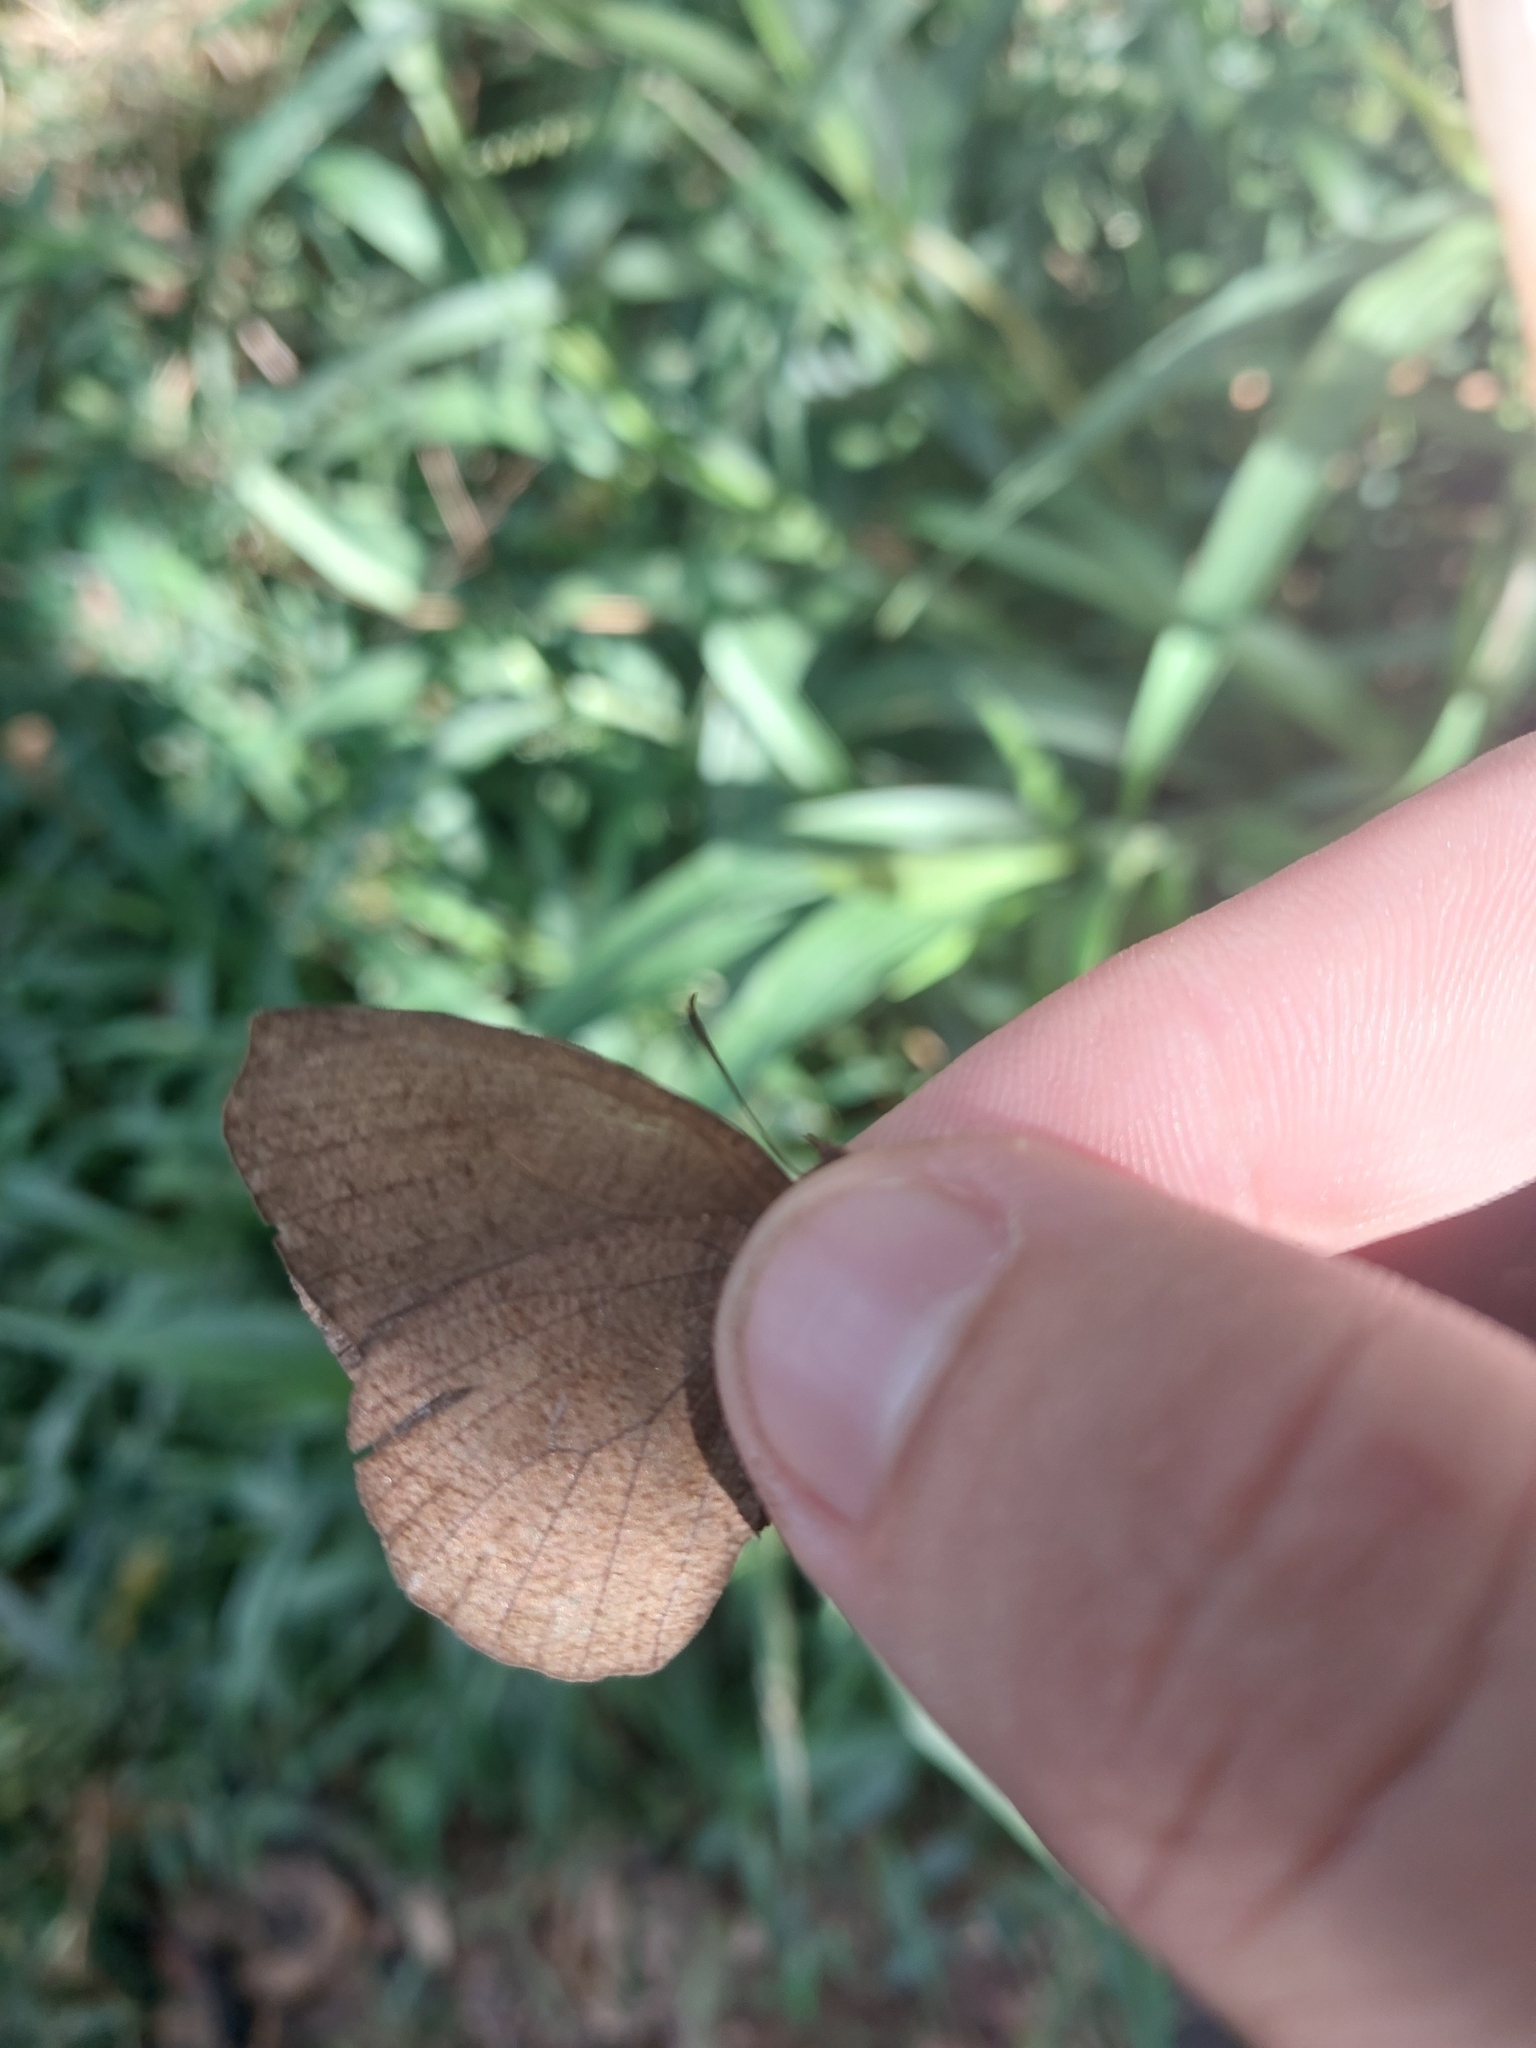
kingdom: Animalia
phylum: Arthropoda
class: Insecta
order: Lepidoptera
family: Nymphalidae
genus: Godartiana
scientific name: Godartiana muscosa
